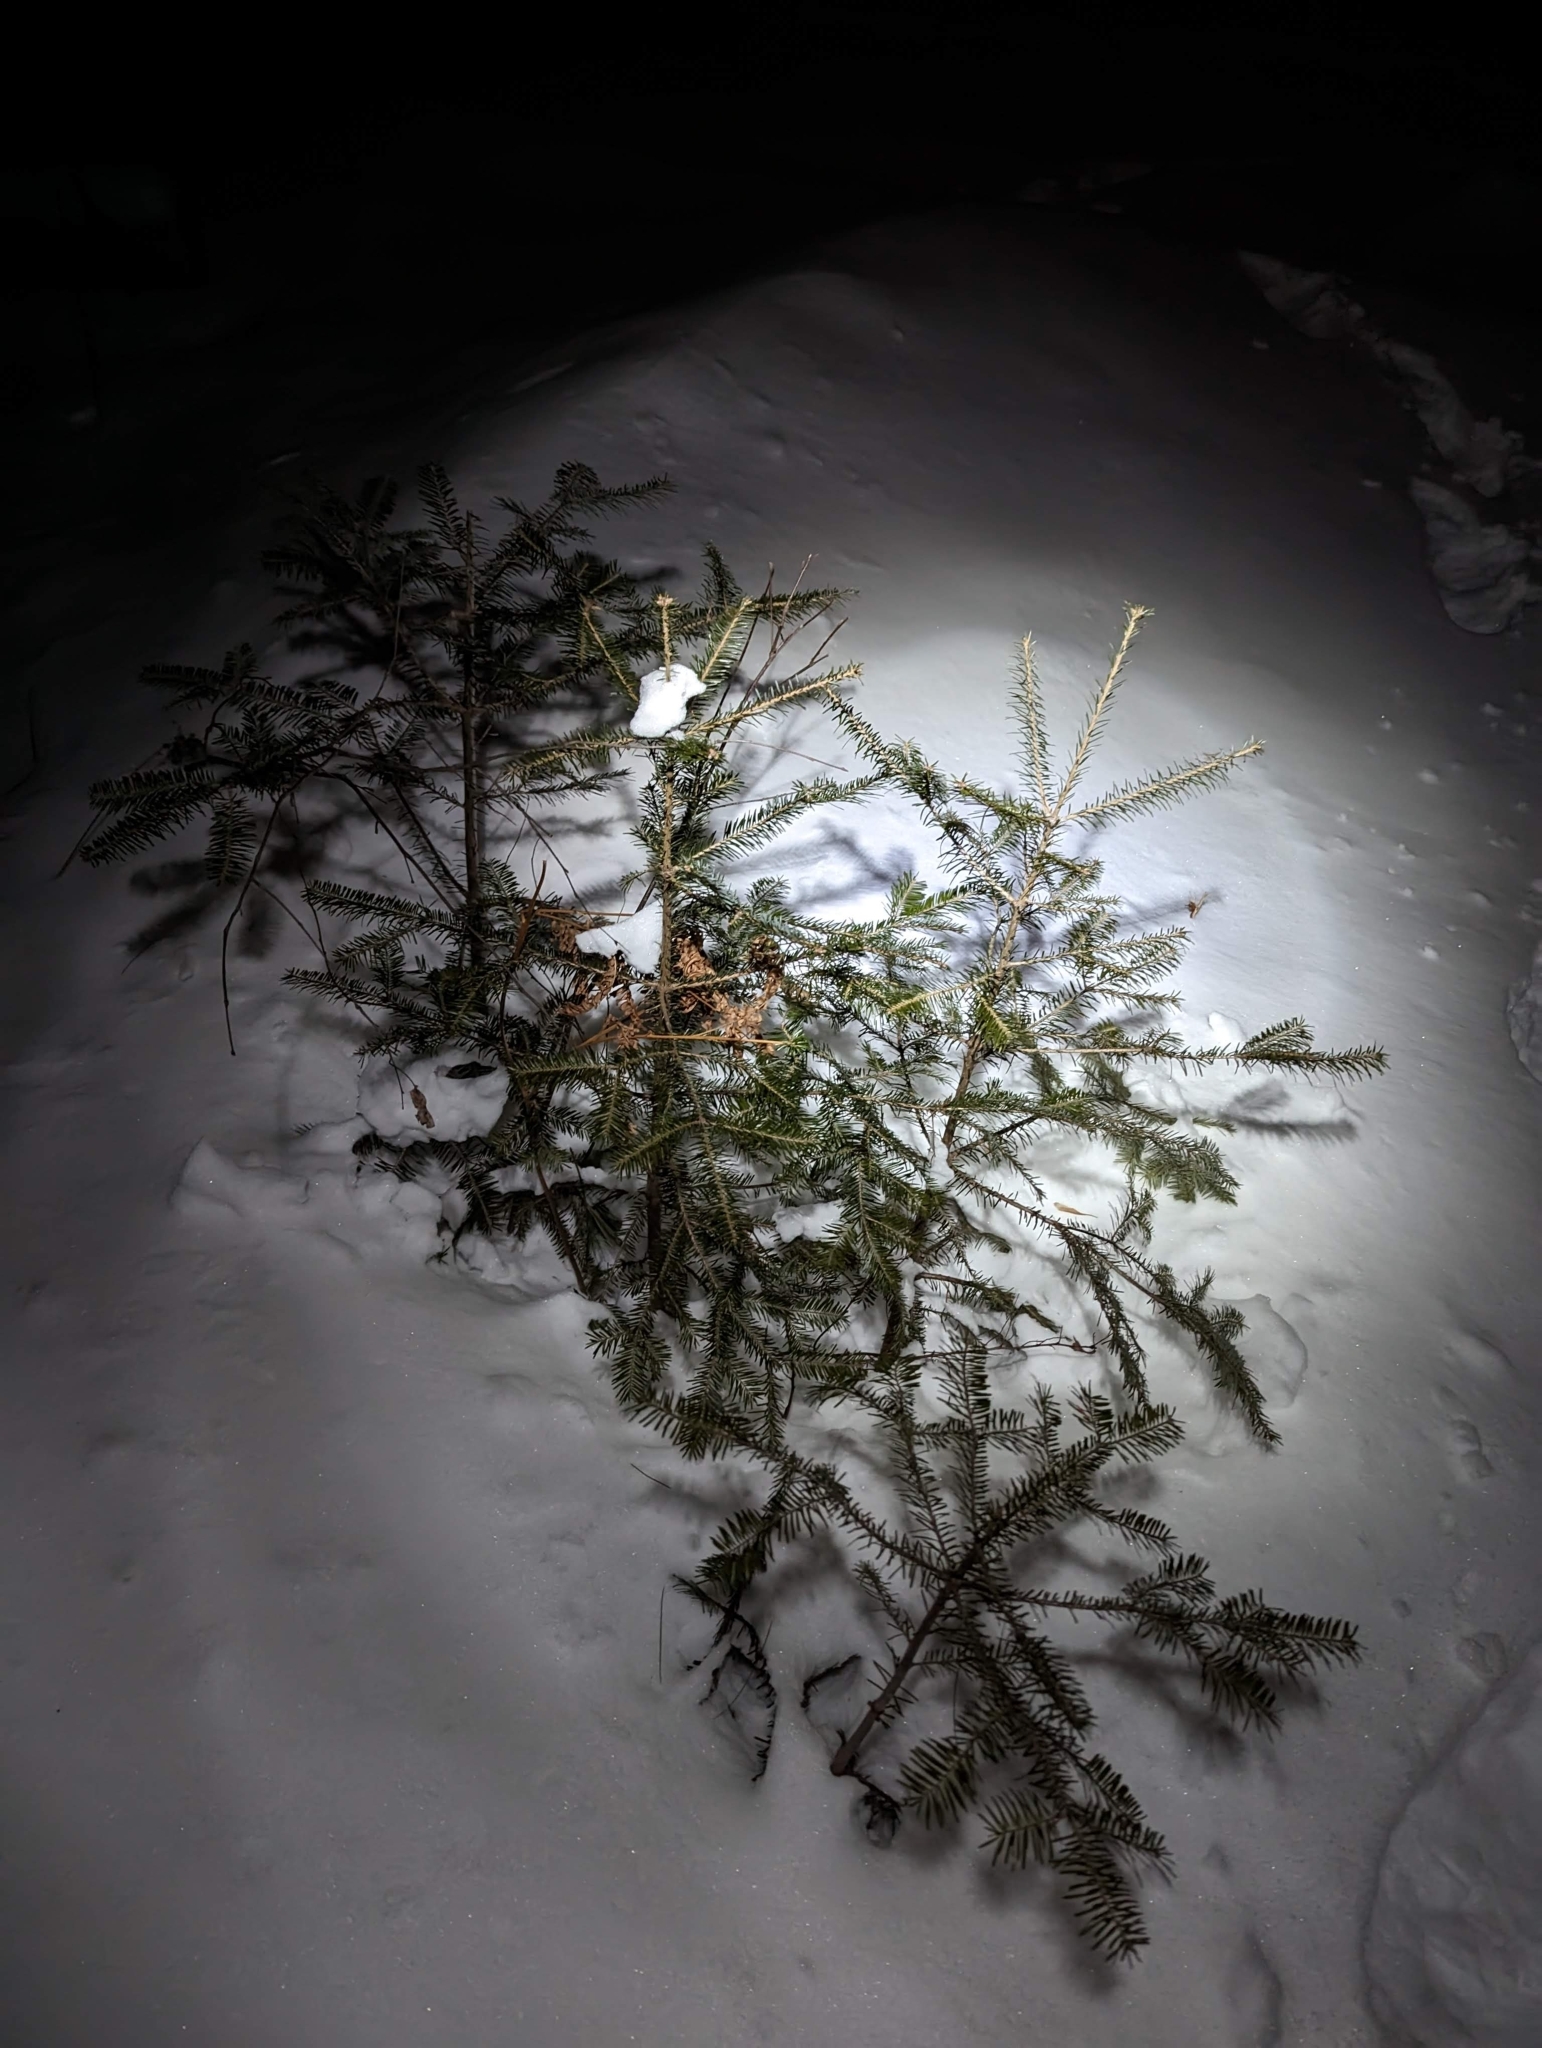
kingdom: Plantae
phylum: Tracheophyta
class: Pinopsida
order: Pinales
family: Pinaceae
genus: Abies
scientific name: Abies balsamea
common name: Balsam fir
